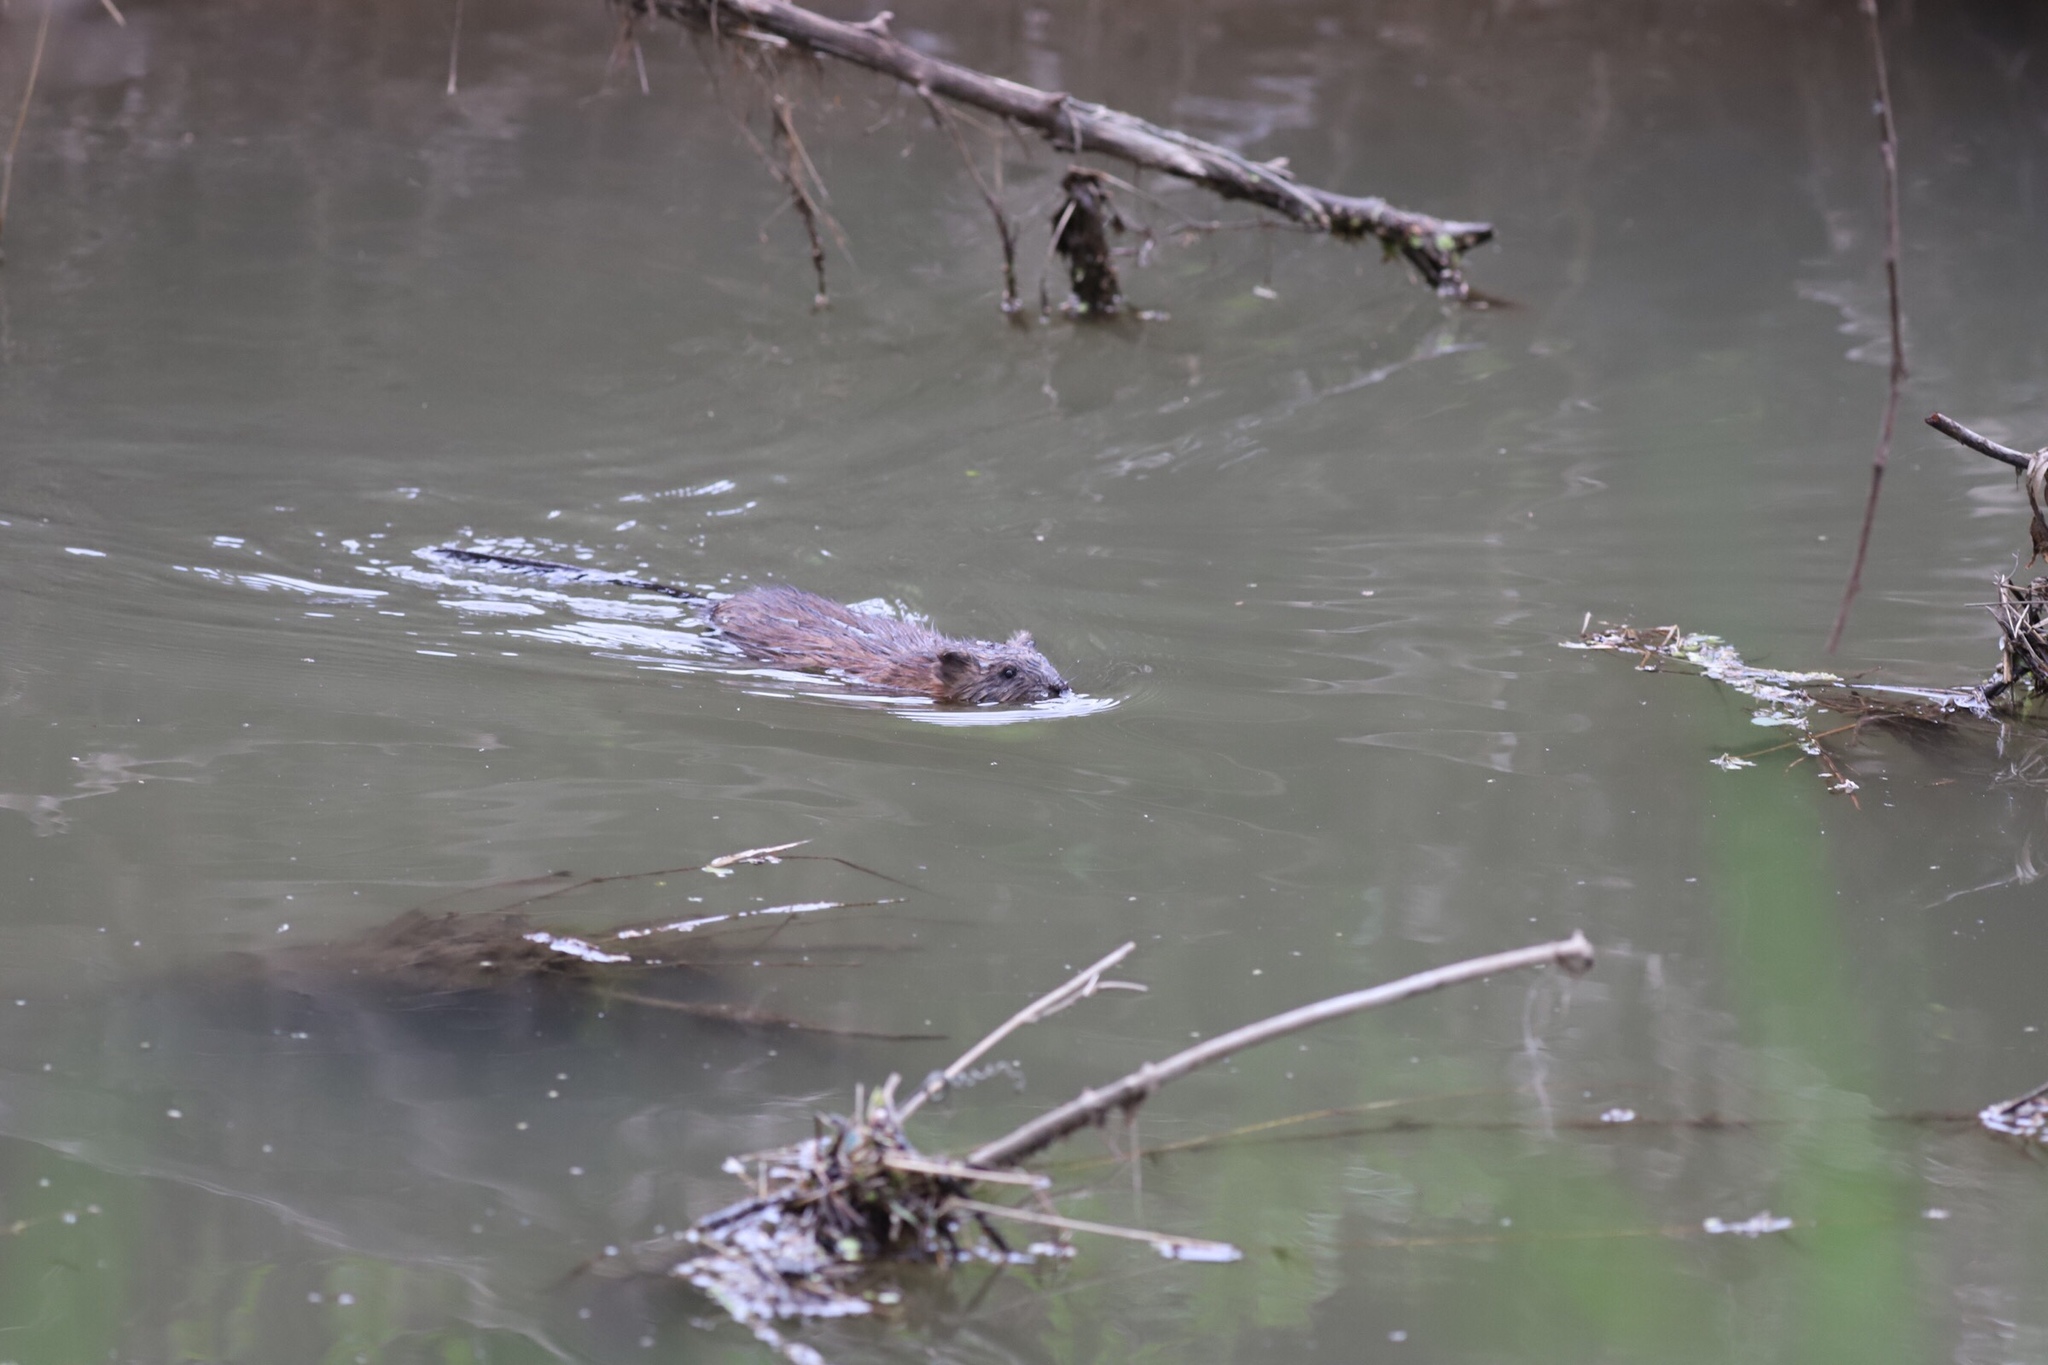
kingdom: Animalia
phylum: Chordata
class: Mammalia
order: Rodentia
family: Cricetidae
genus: Ondatra
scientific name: Ondatra zibethicus
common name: Muskrat
